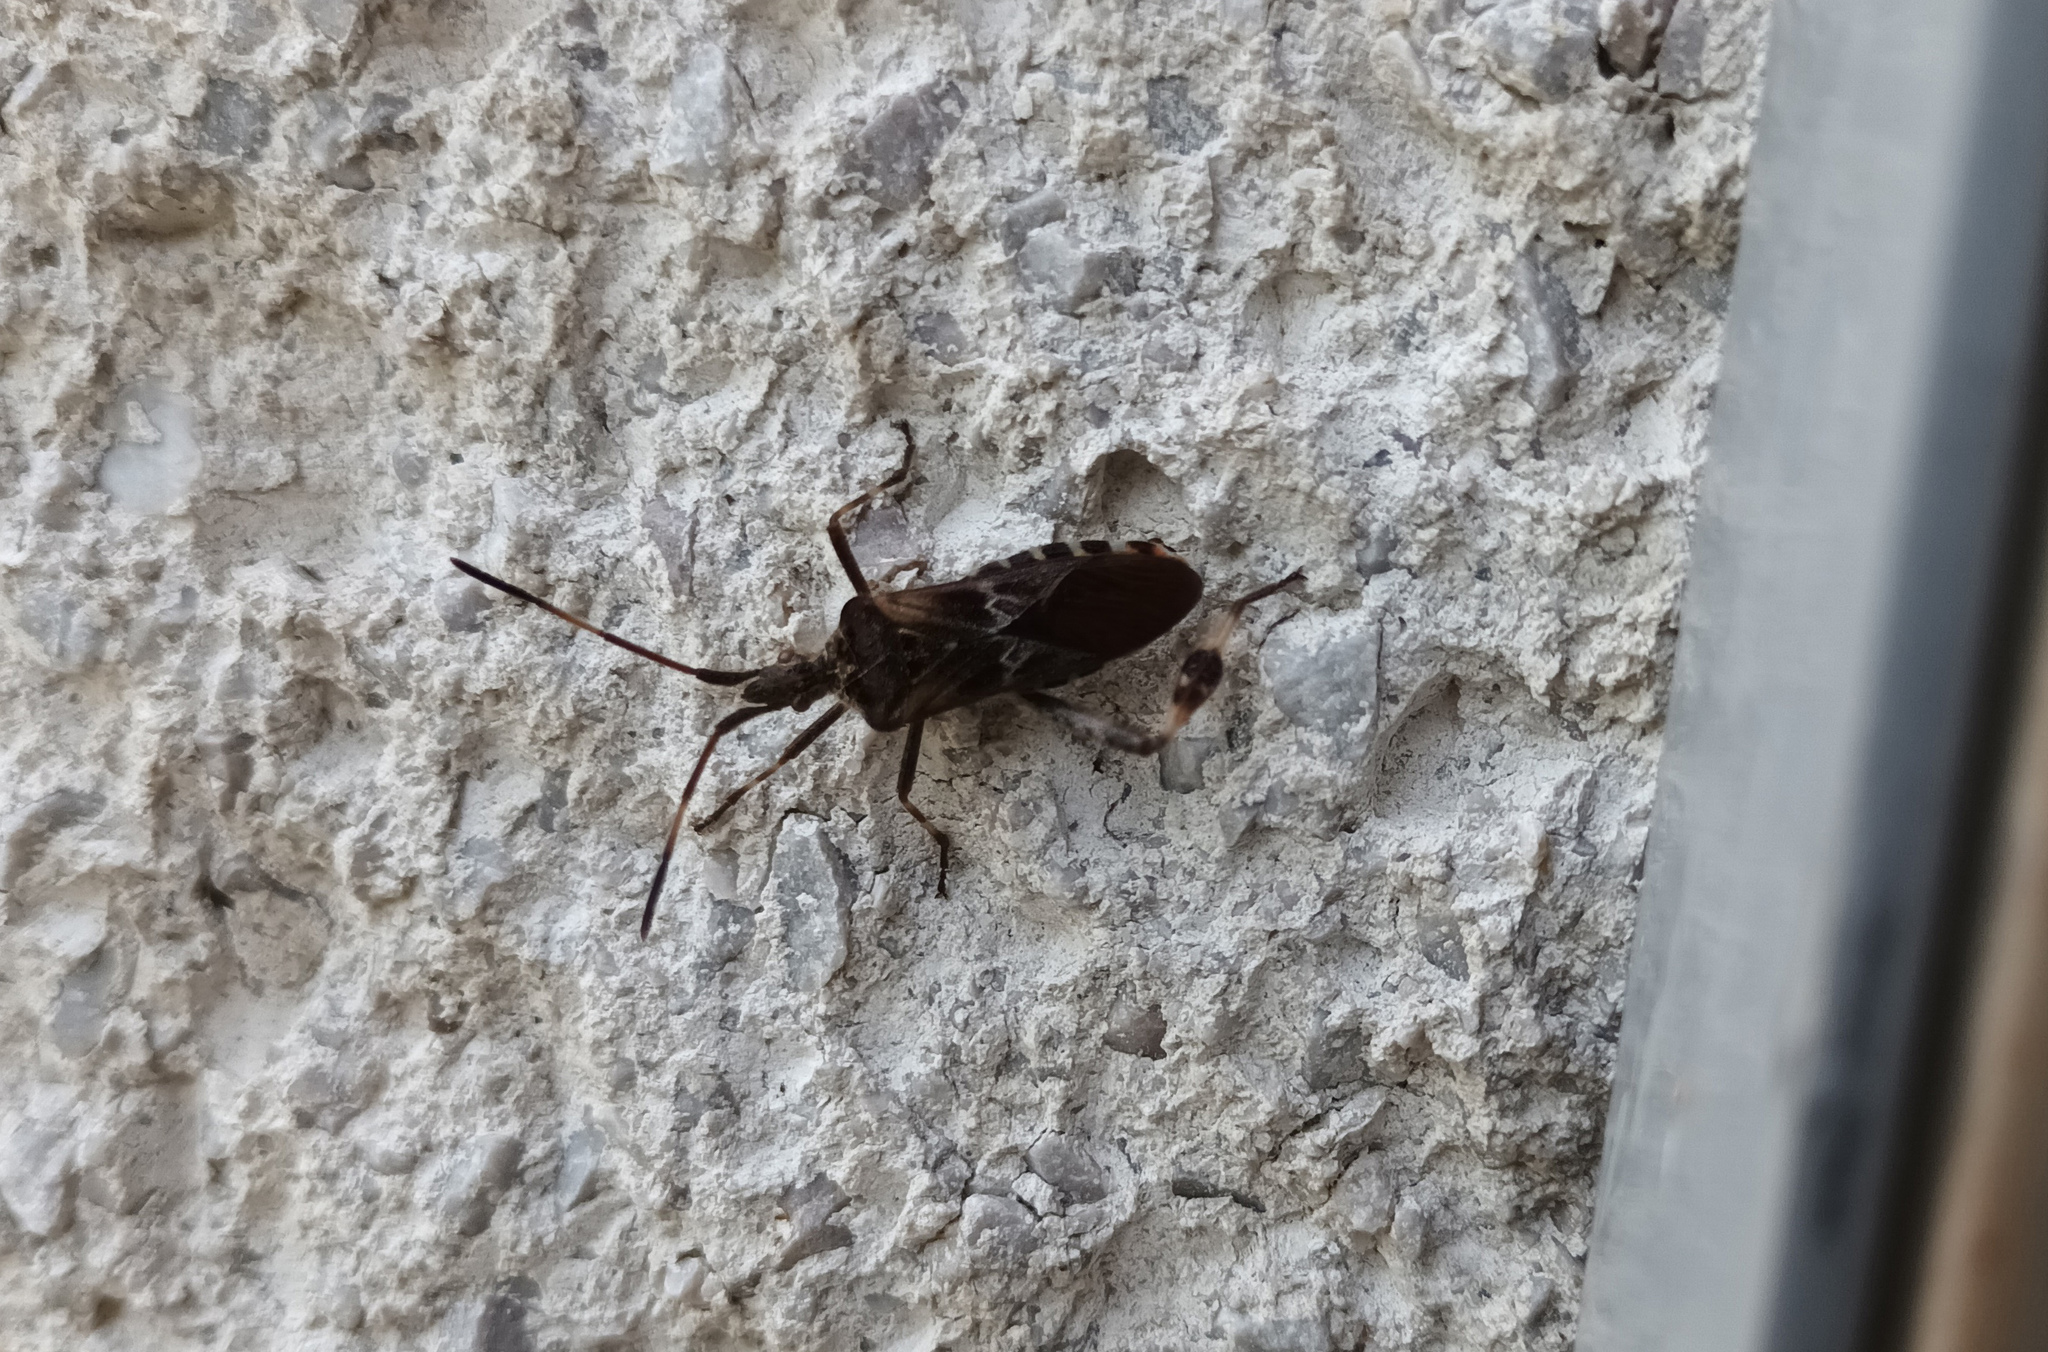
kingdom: Animalia
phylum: Arthropoda
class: Insecta
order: Hemiptera
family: Coreidae
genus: Leptoglossus
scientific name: Leptoglossus occidentalis
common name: Western conifer-seed bug
